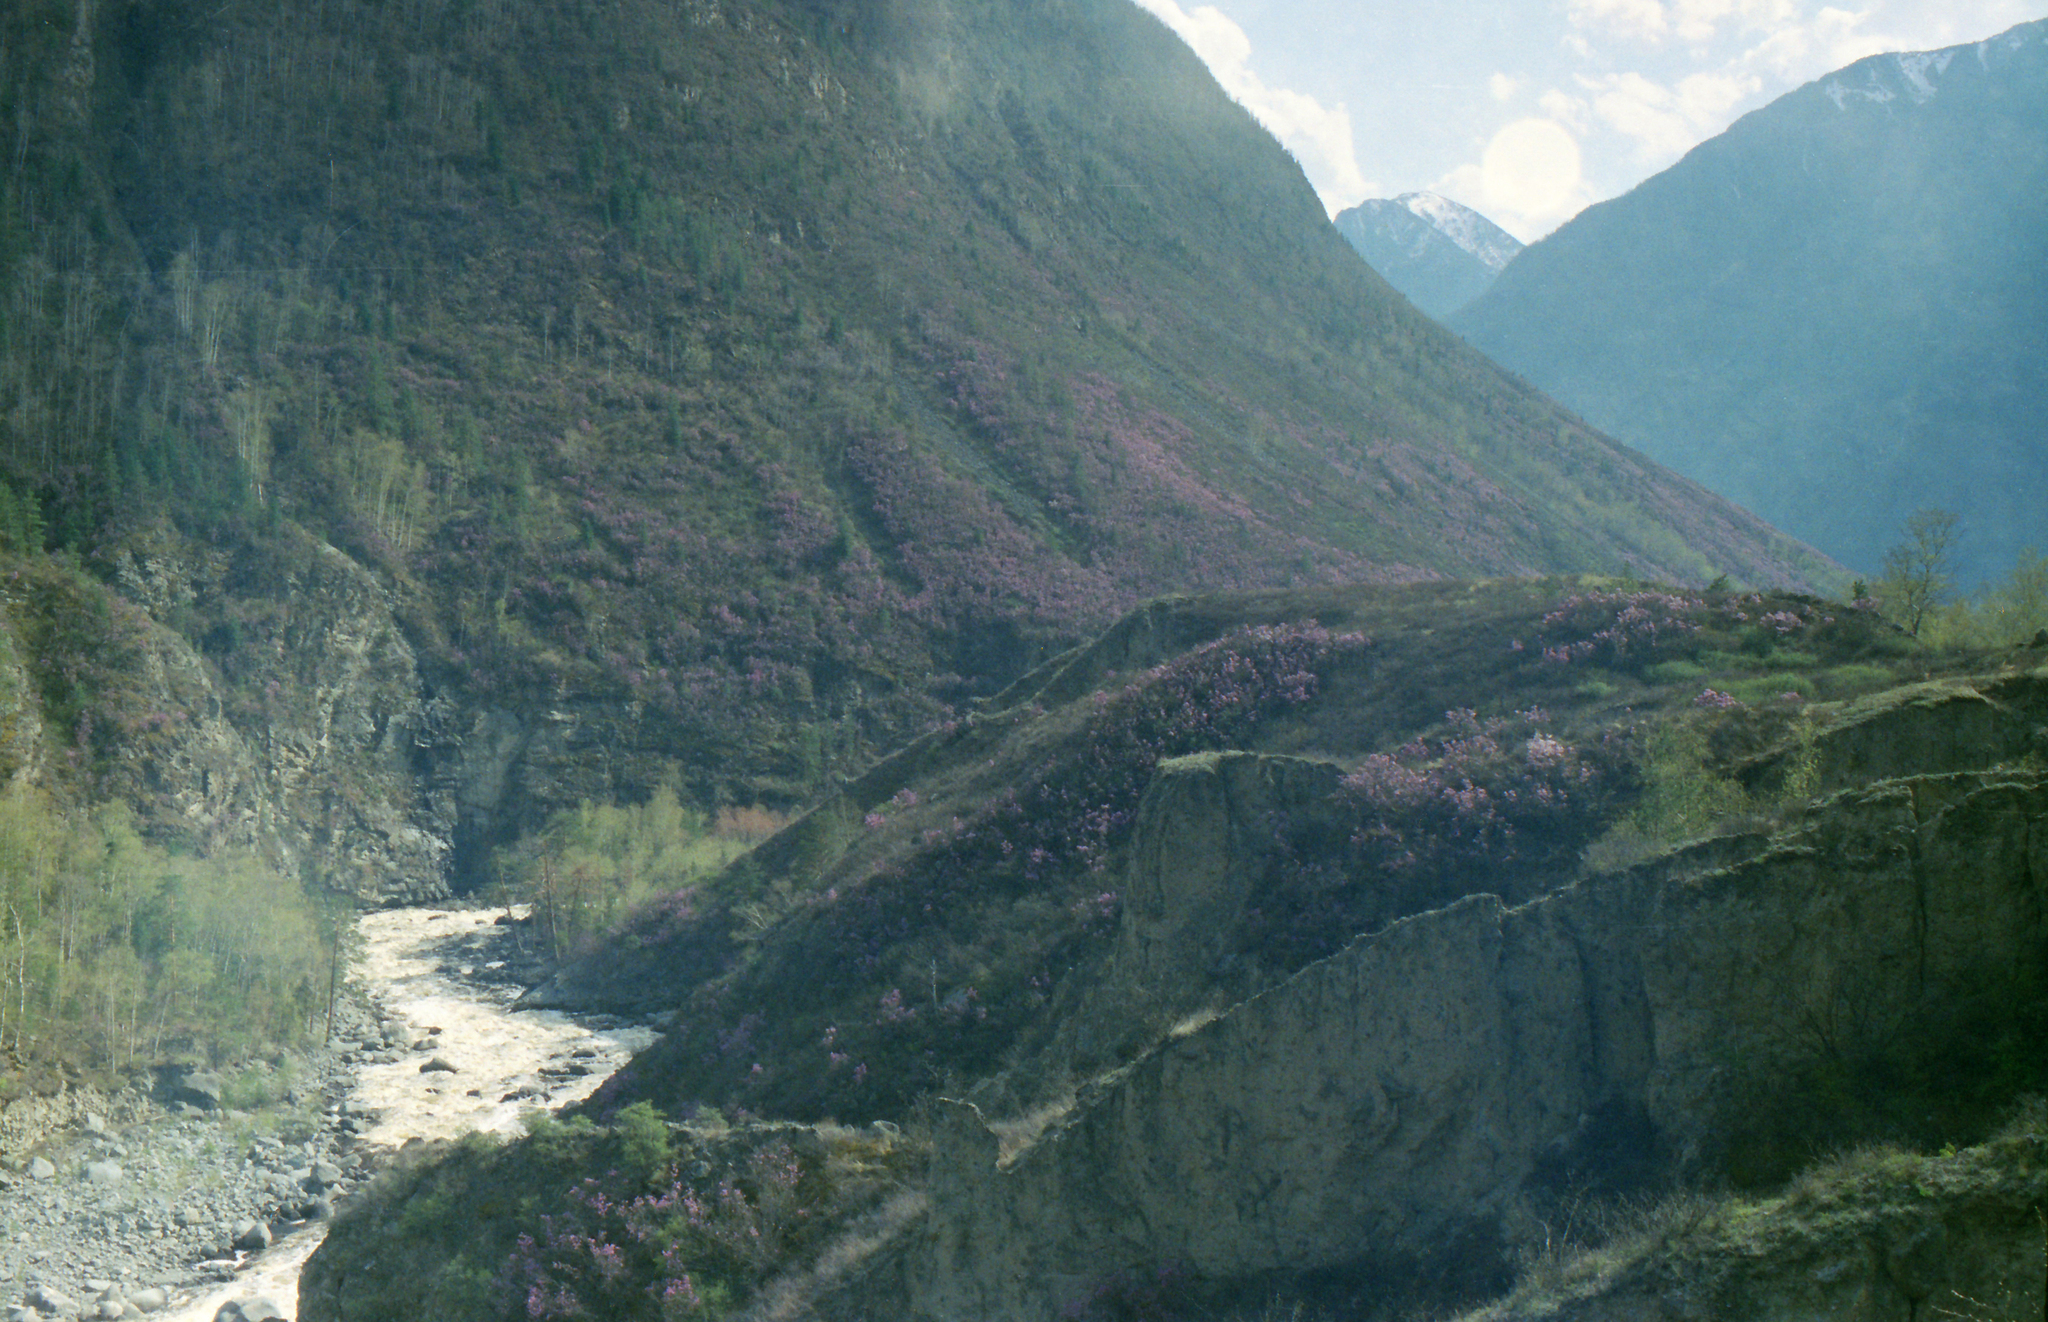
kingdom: Plantae
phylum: Tracheophyta
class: Magnoliopsida
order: Ericales
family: Ericaceae
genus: Rhododendron
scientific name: Rhododendron dauricum
